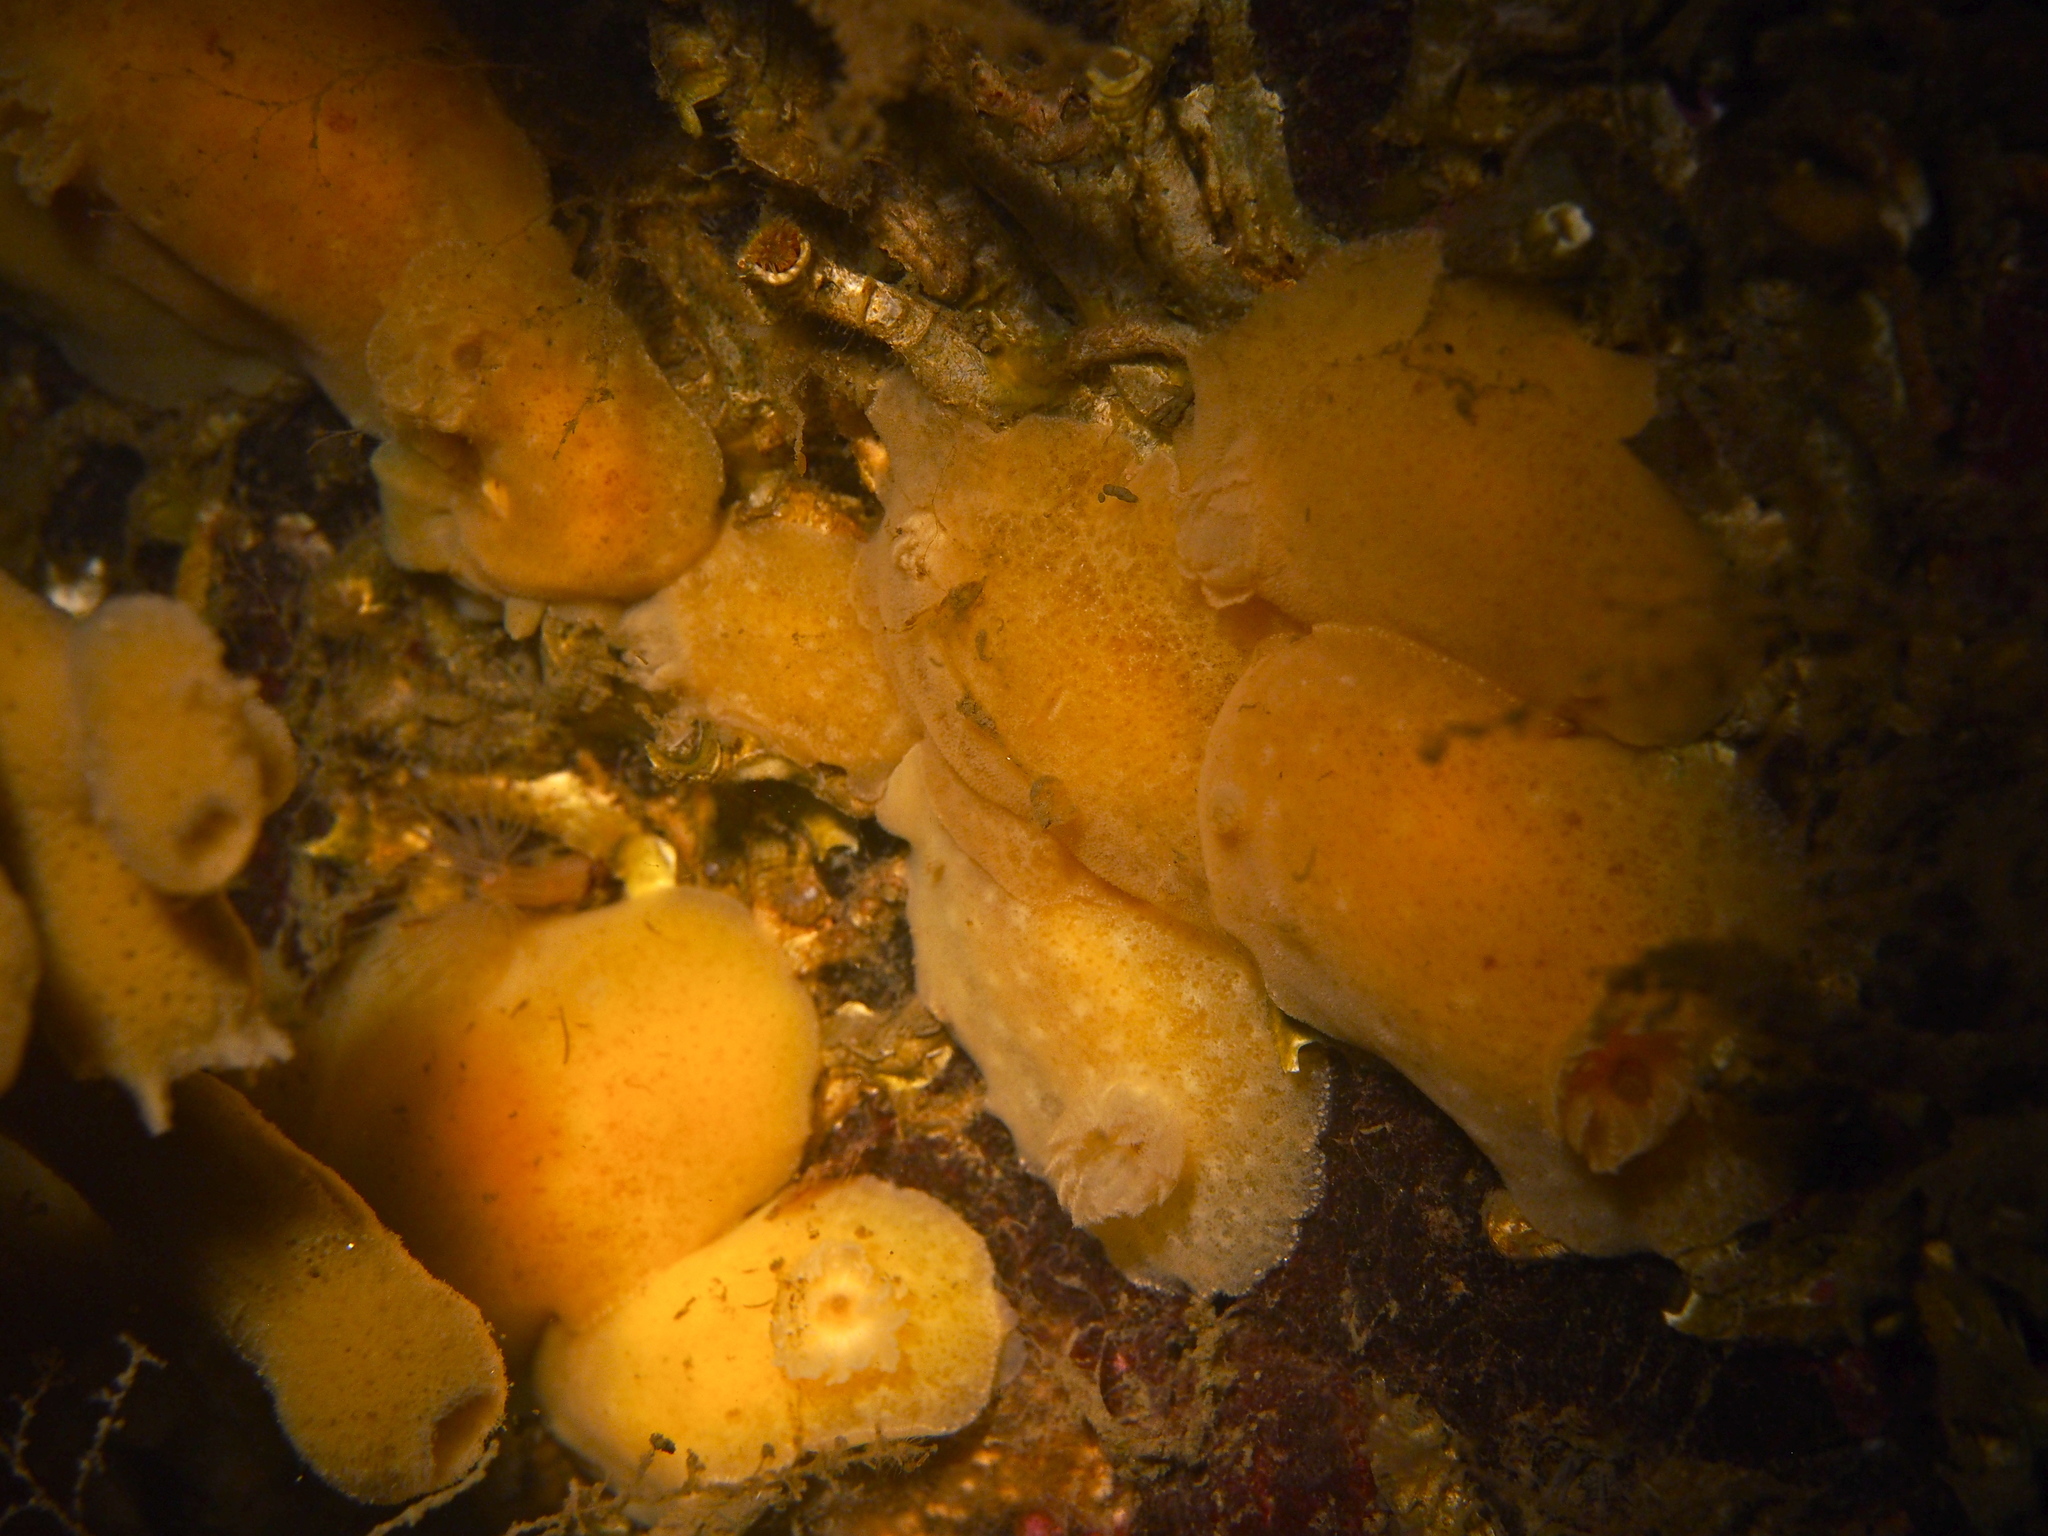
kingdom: Animalia
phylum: Mollusca
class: Gastropoda
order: Nudibranchia
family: Discodorididae
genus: Jorunna
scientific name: Jorunna tomentosa
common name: Grey sea slug
